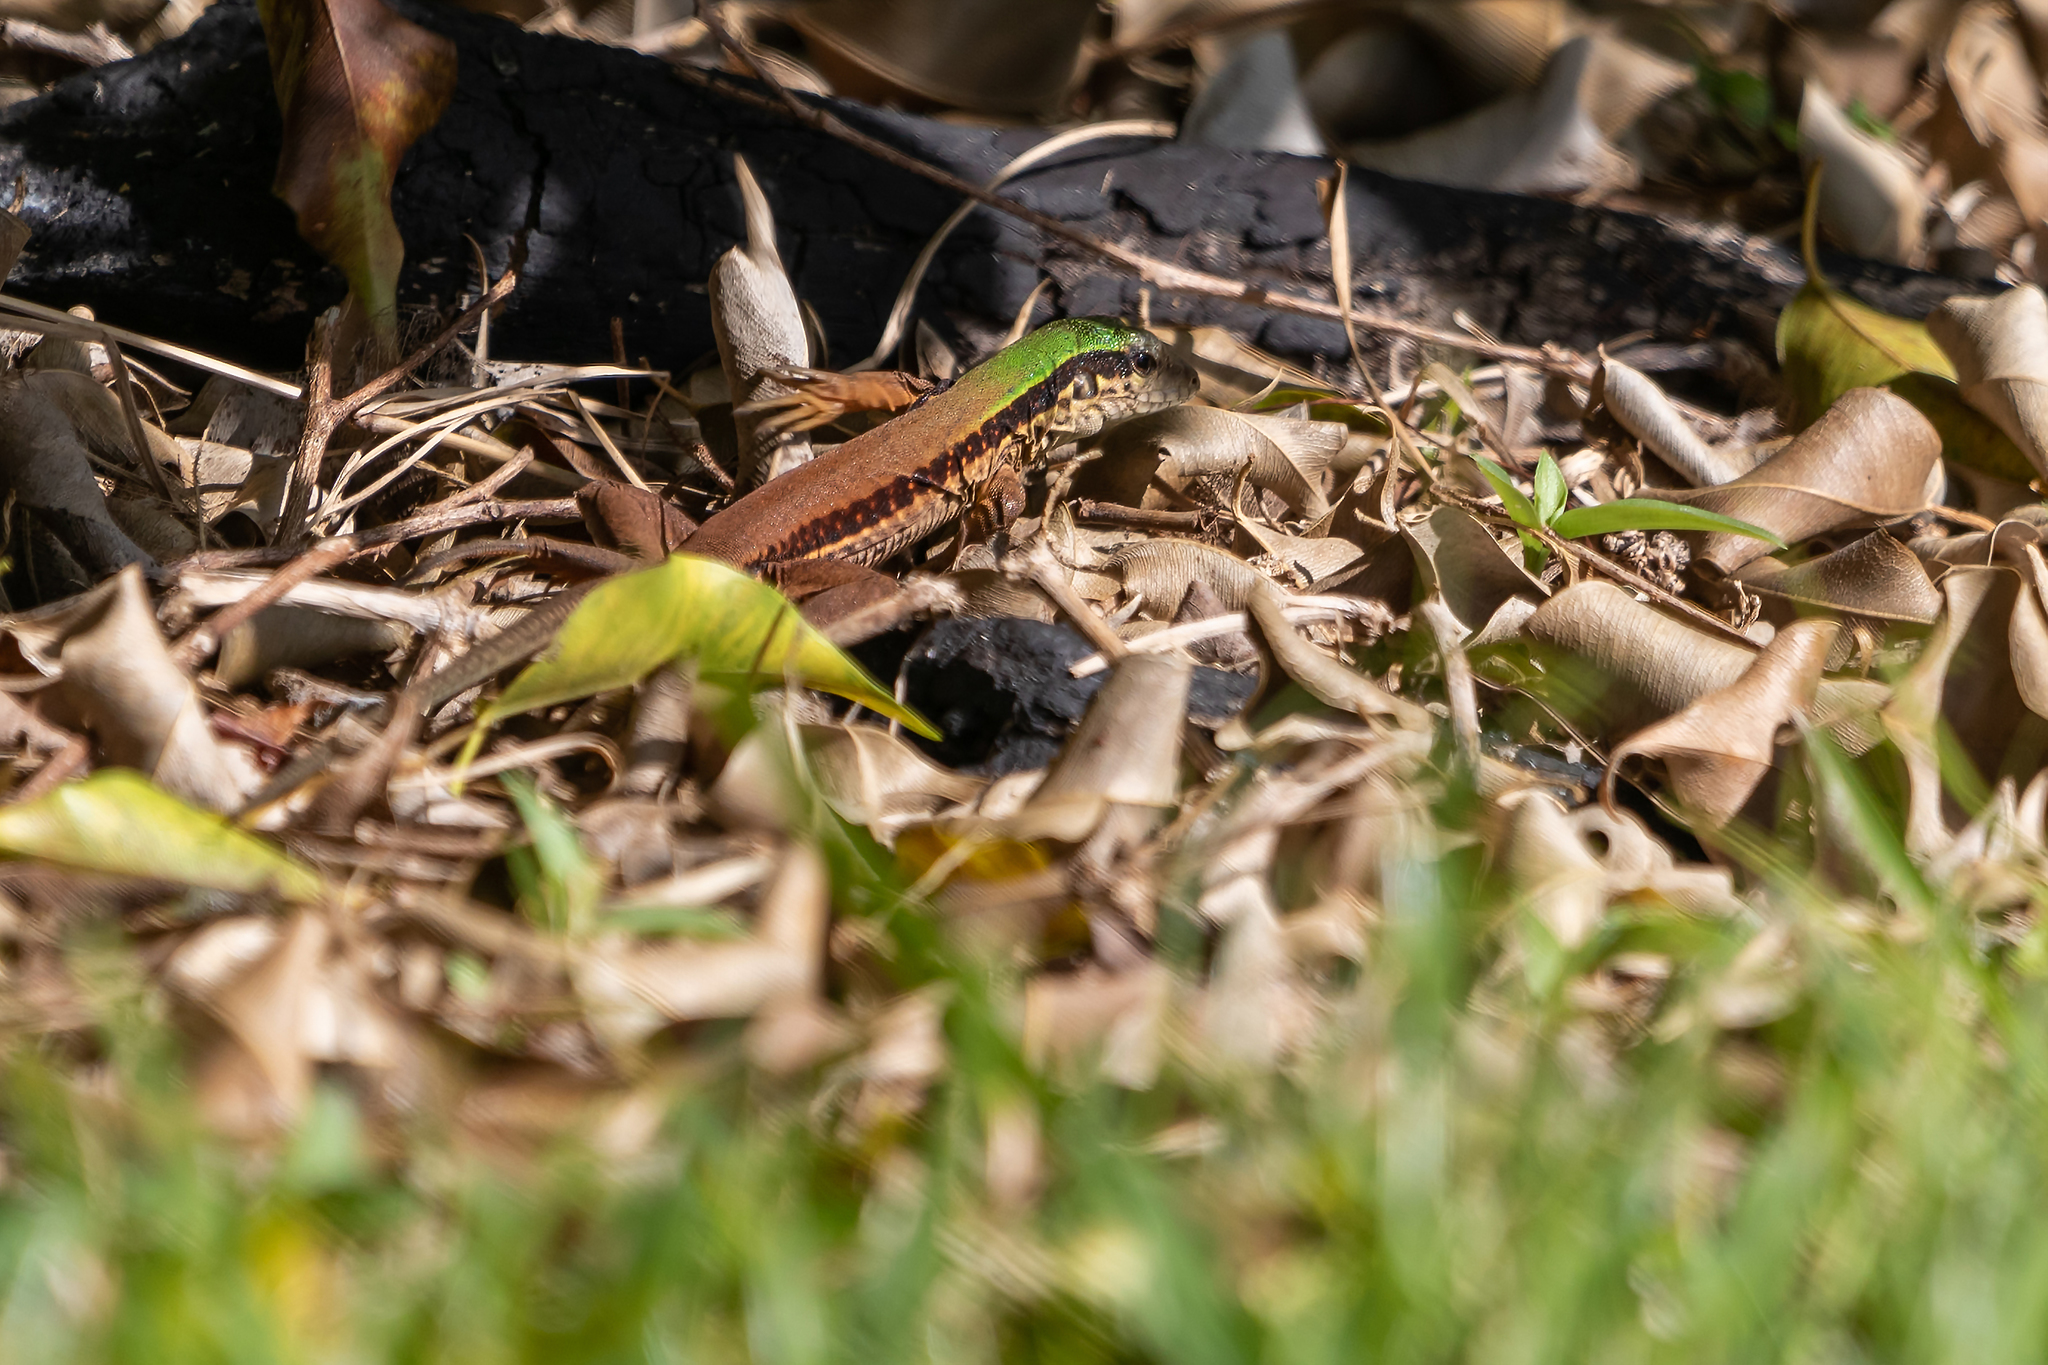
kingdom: Animalia
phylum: Chordata
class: Squamata
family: Teiidae
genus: Ameiva
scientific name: Ameiva ameiva
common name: Giant ameiva
